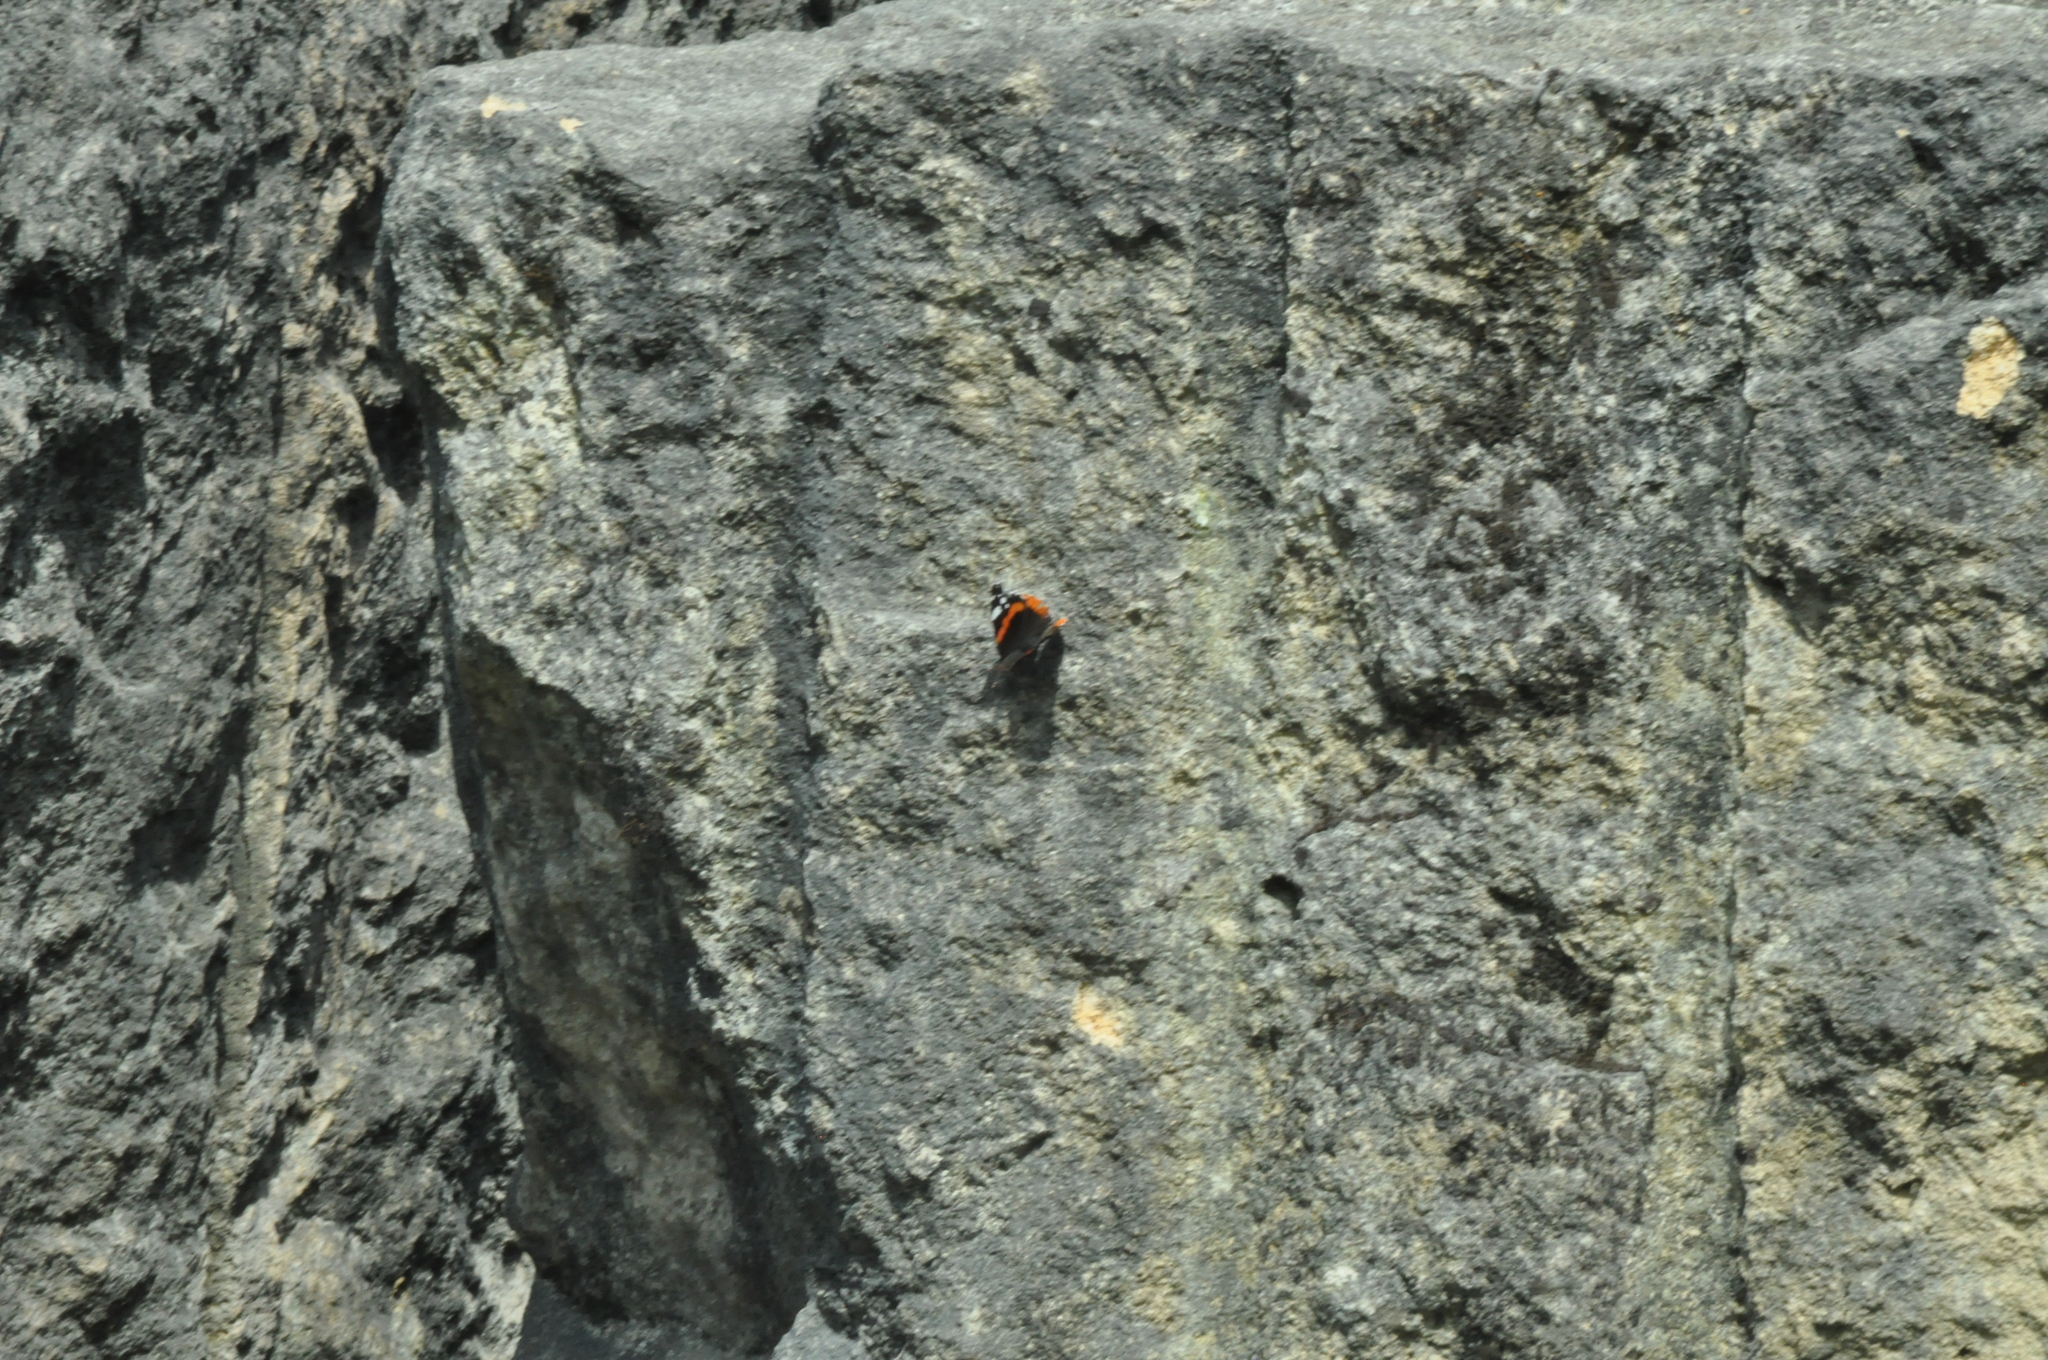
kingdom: Animalia
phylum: Arthropoda
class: Insecta
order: Lepidoptera
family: Nymphalidae
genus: Vanessa
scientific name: Vanessa atalanta
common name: Red admiral
